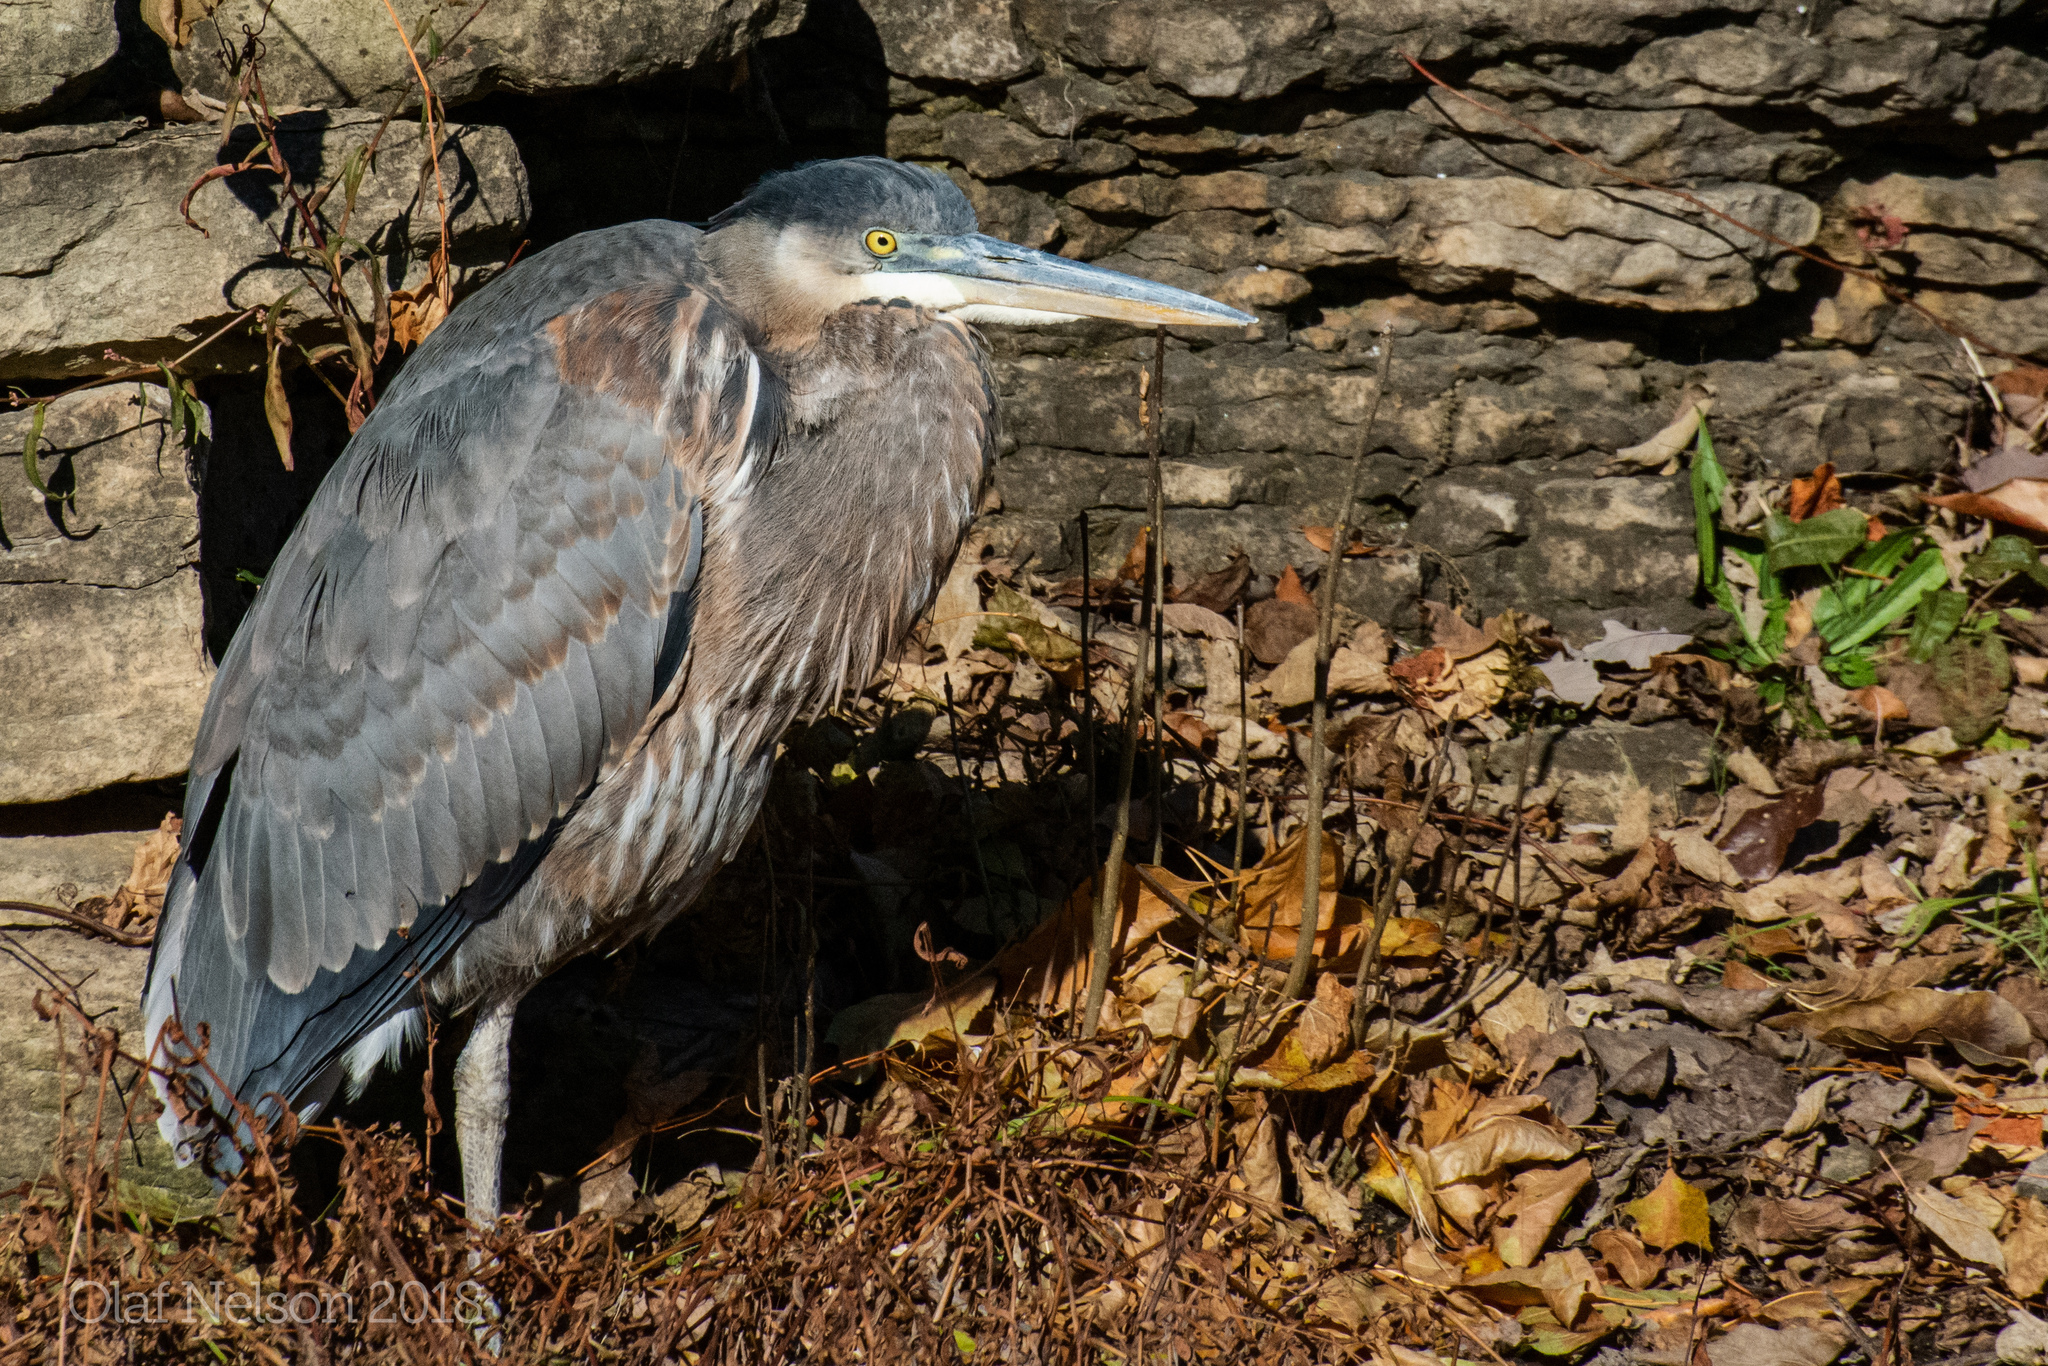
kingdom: Animalia
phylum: Chordata
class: Aves
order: Pelecaniformes
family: Ardeidae
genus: Ardea
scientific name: Ardea herodias
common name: Great blue heron
